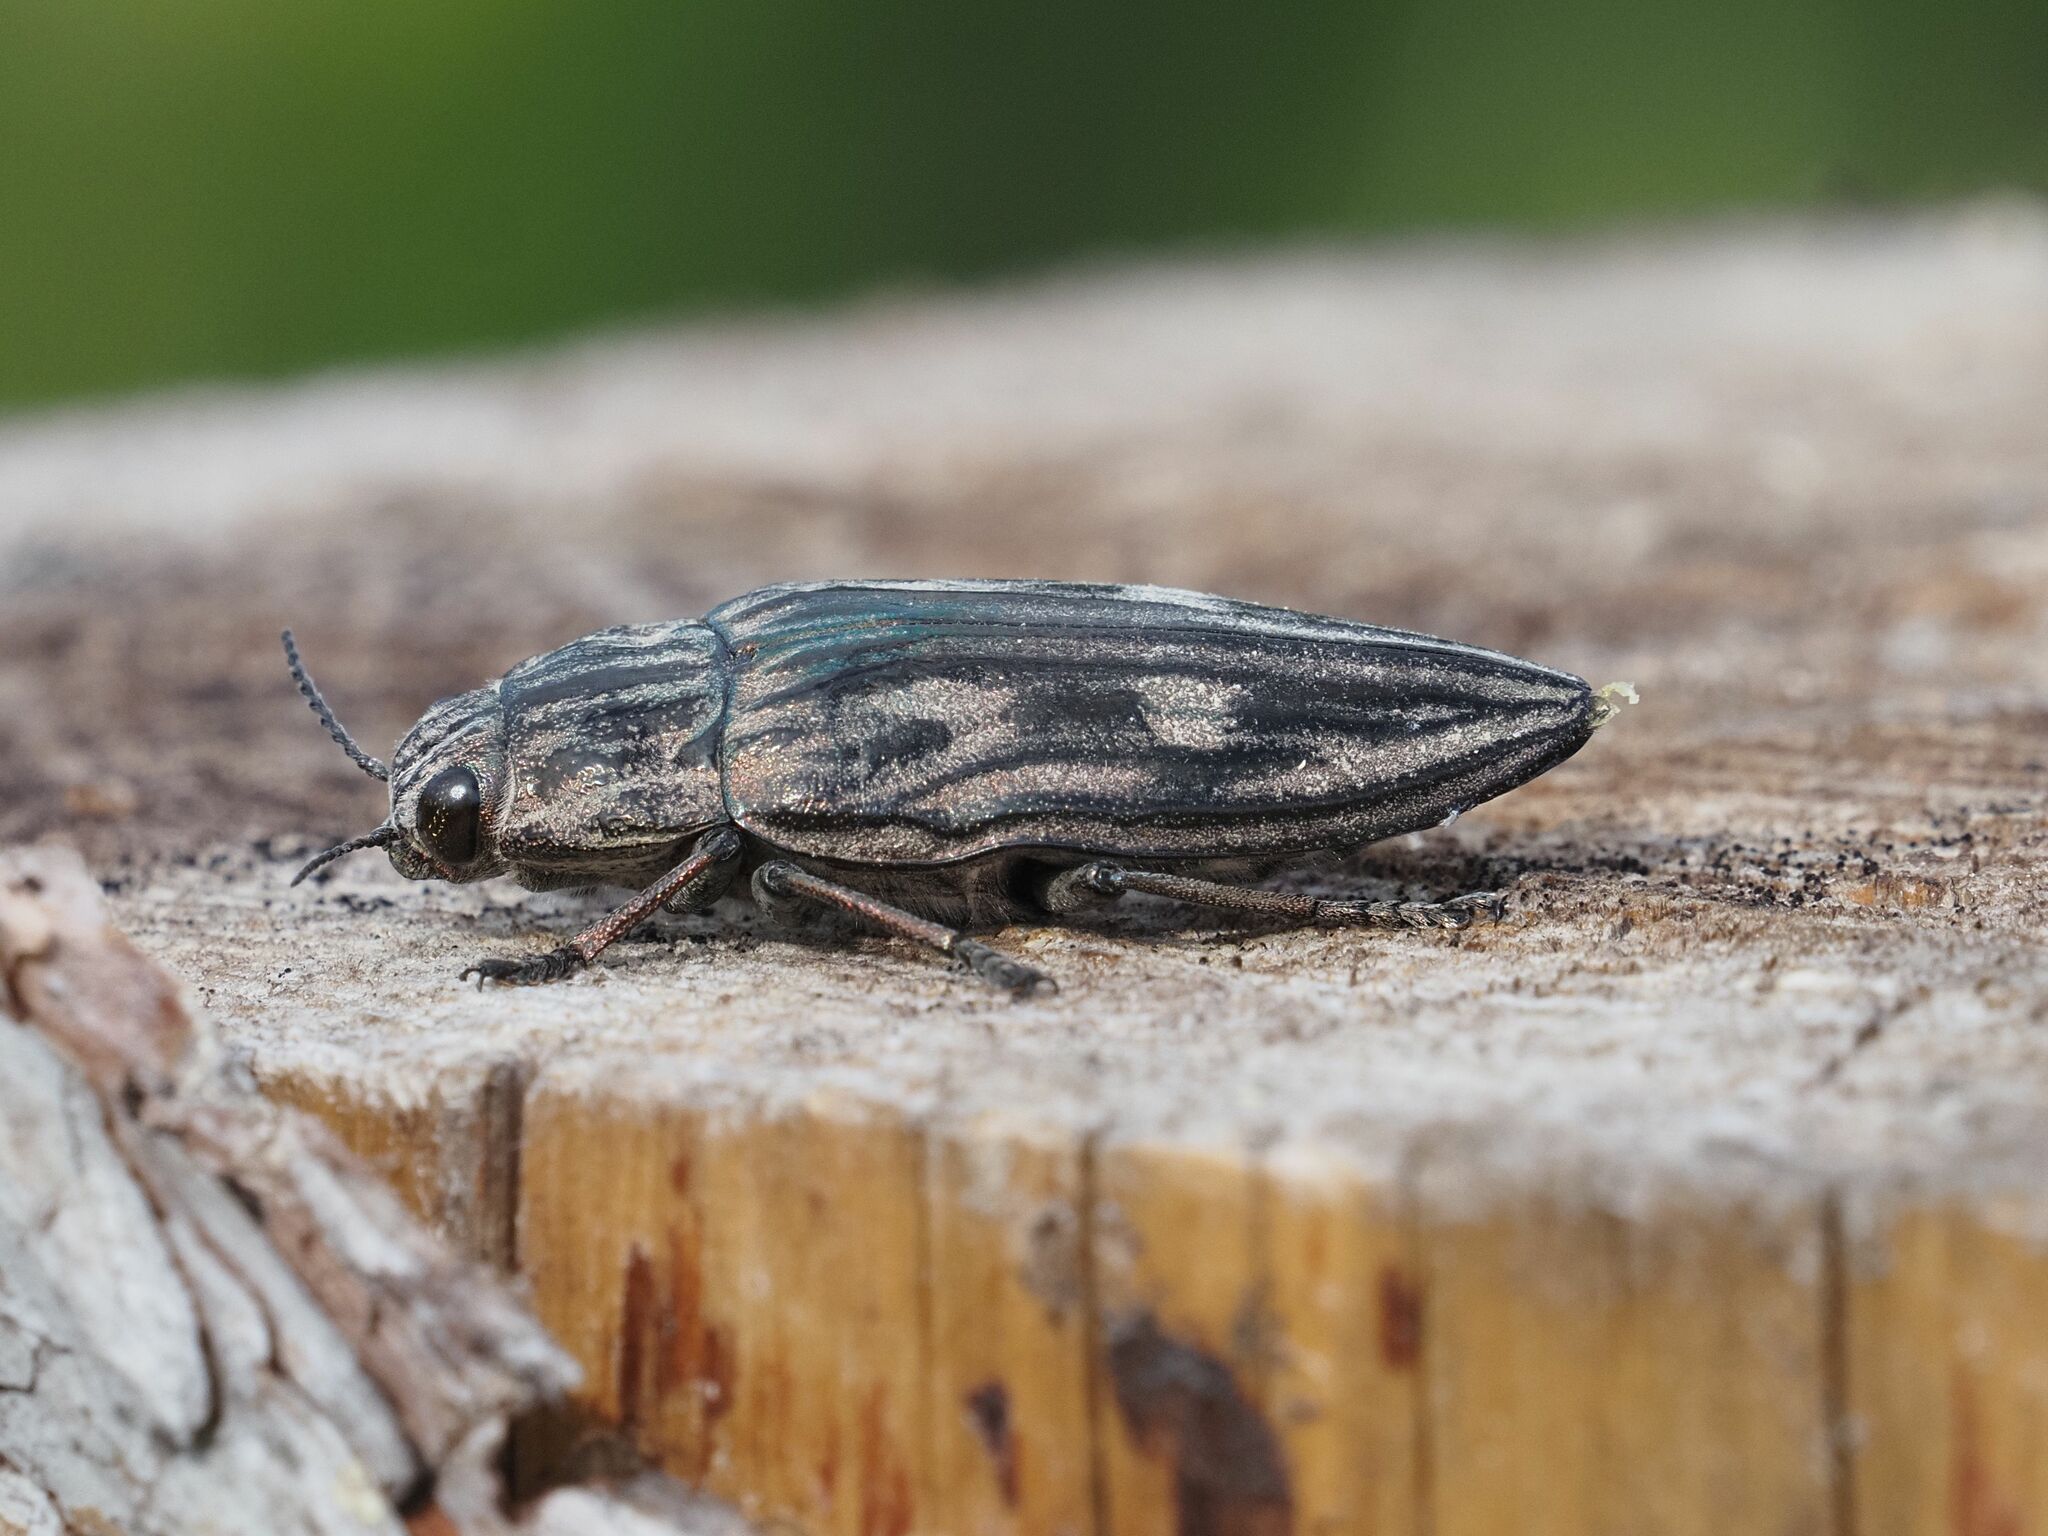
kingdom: Animalia
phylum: Arthropoda
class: Insecta
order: Coleoptera
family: Buprestidae
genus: Chalcophora
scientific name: Chalcophora mariana
